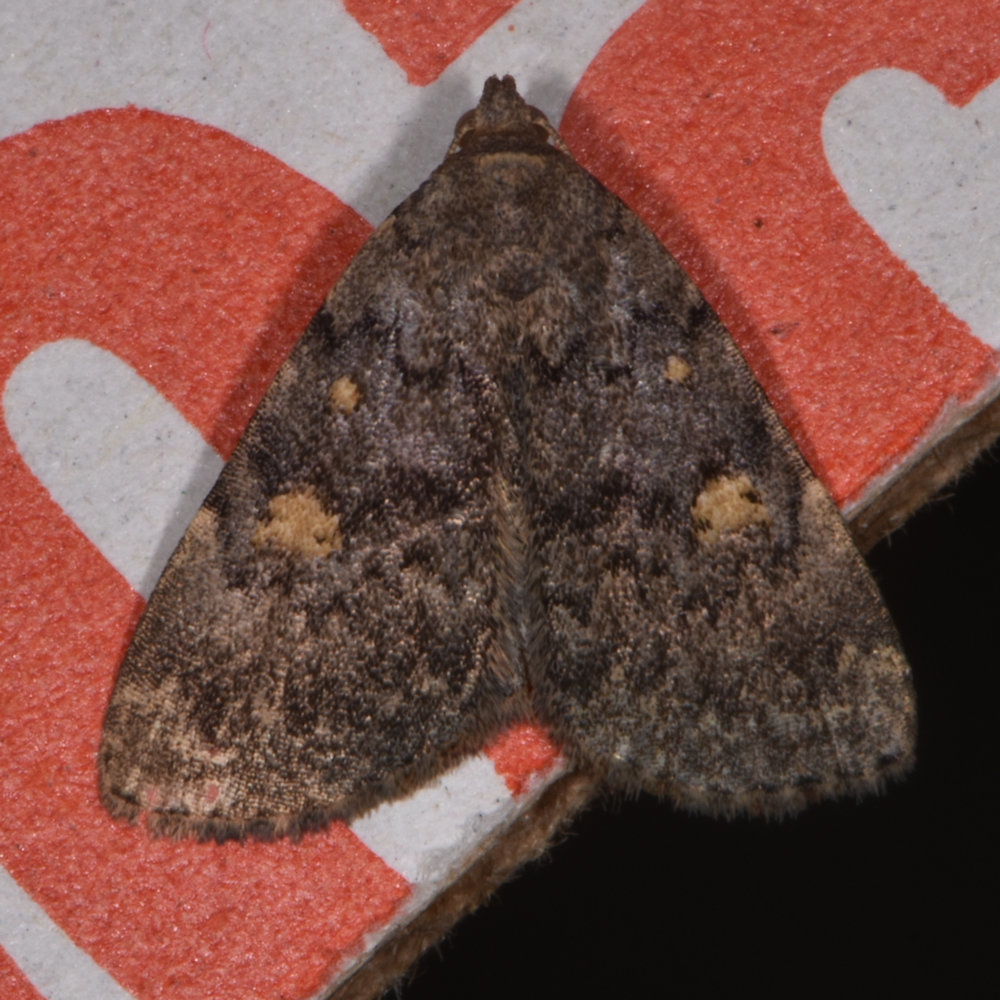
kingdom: Animalia
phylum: Arthropoda
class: Insecta
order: Lepidoptera
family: Erebidae
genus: Idia
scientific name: Idia aemula
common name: Common idia moth
